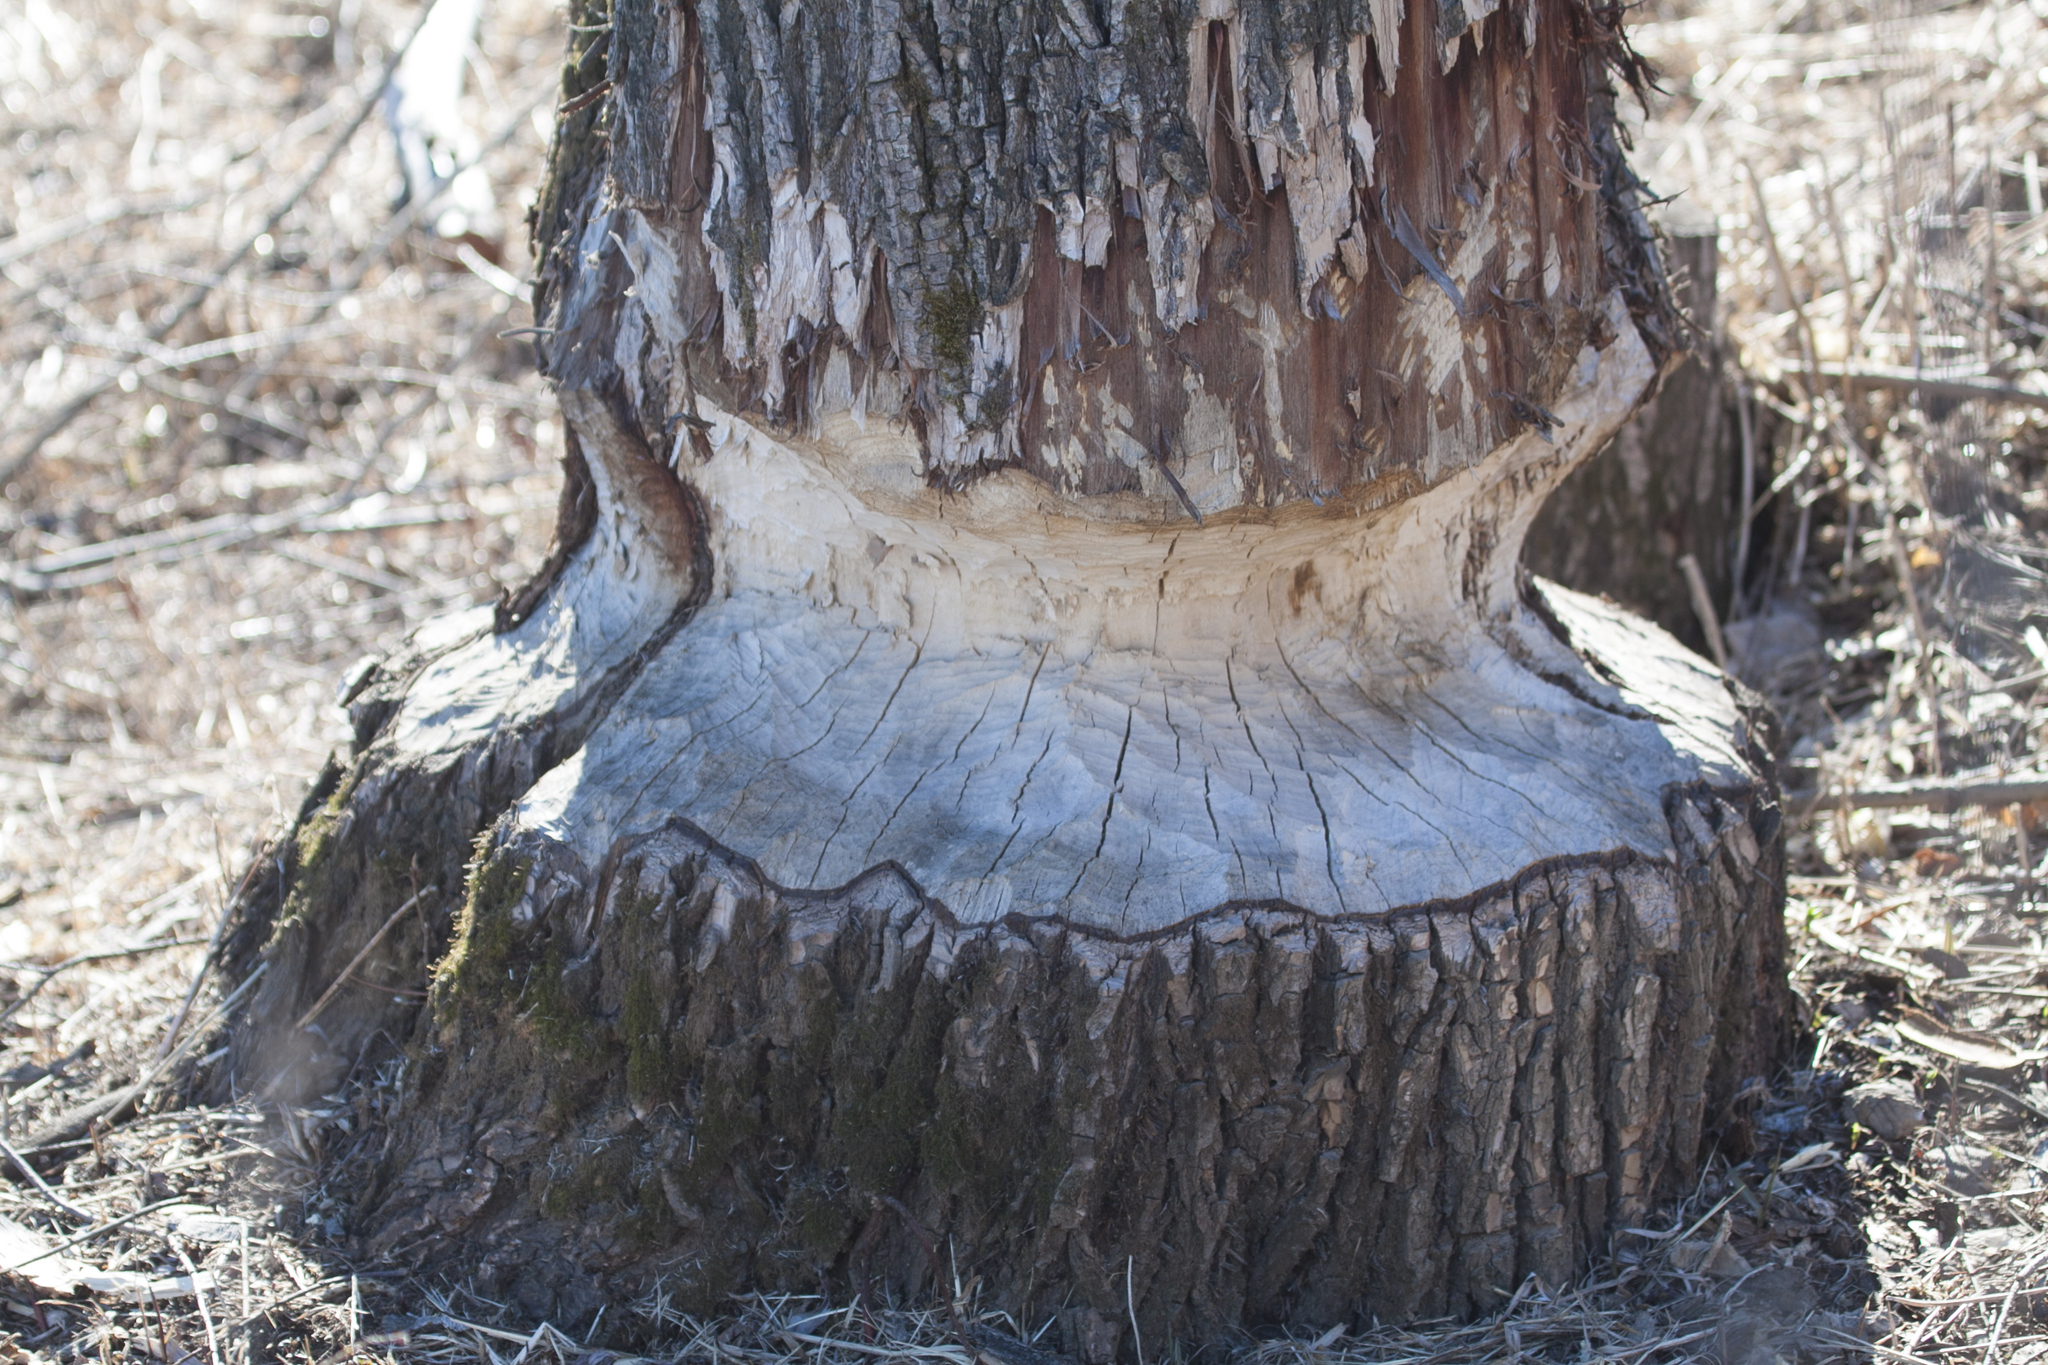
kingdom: Animalia
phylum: Chordata
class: Mammalia
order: Rodentia
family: Castoridae
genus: Castor
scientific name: Castor fiber
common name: Eurasian beaver
